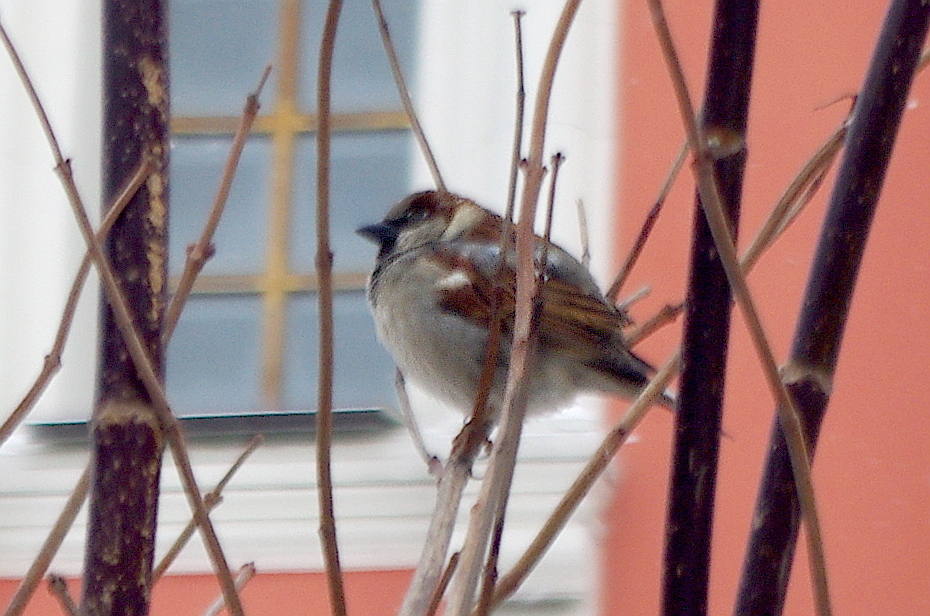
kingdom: Animalia
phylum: Chordata
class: Aves
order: Passeriformes
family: Passeridae
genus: Passer
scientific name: Passer domesticus
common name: House sparrow
